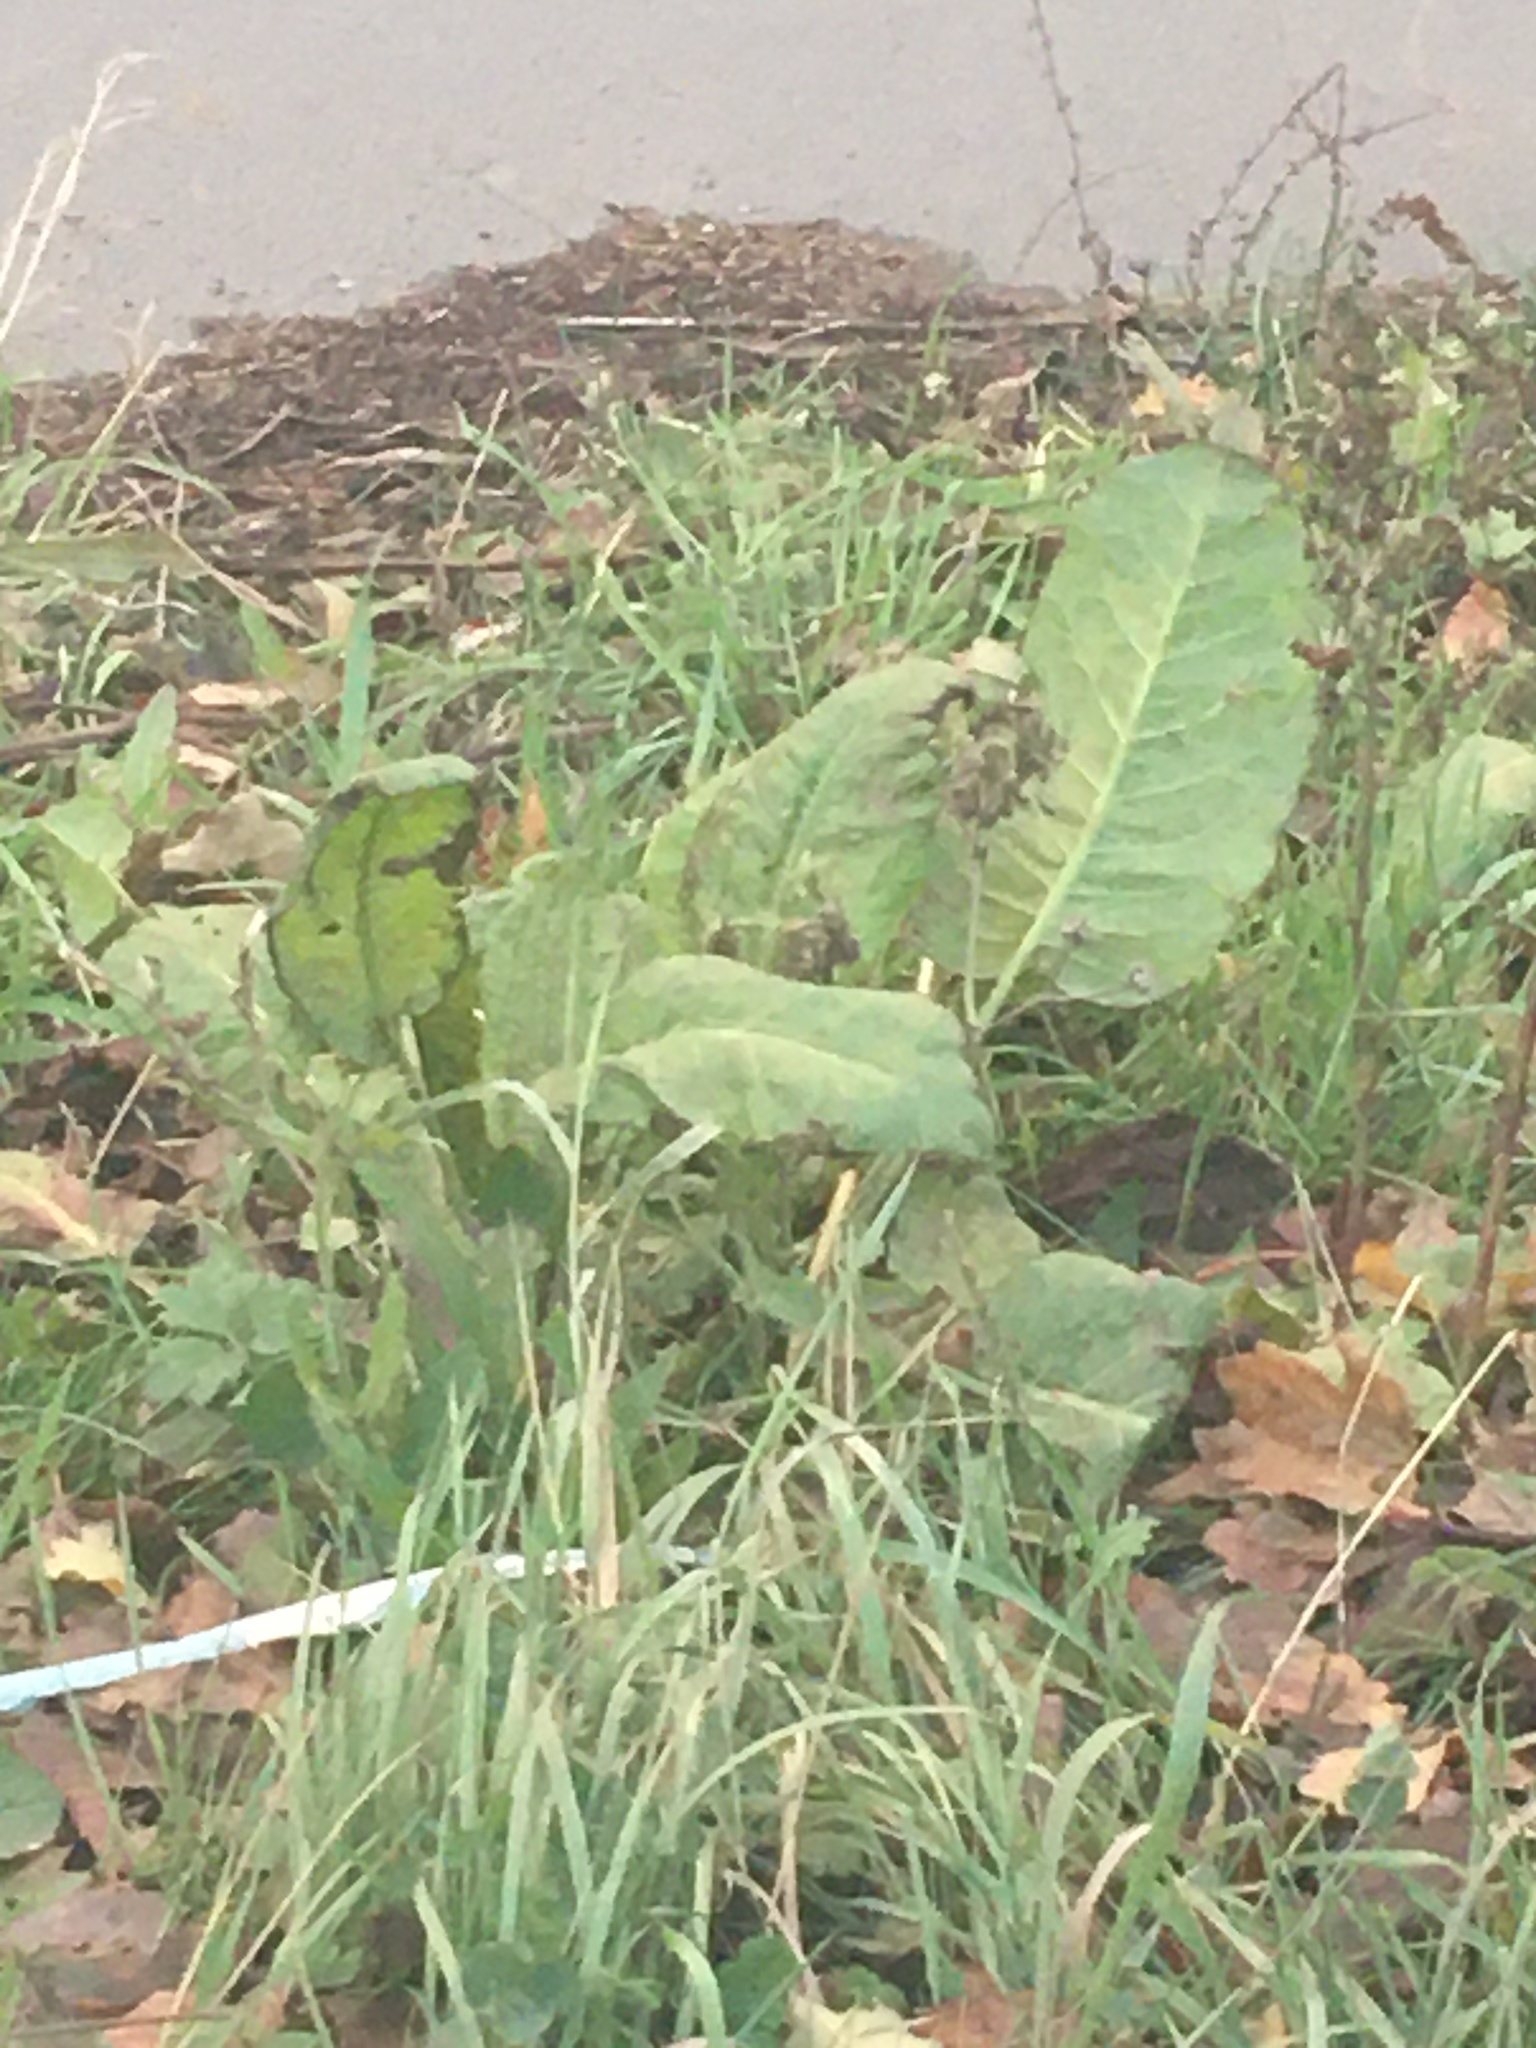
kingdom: Plantae
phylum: Tracheophyta
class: Magnoliopsida
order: Caryophyllales
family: Polygonaceae
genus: Rumex
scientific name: Rumex obtusifolius
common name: Bitter dock
